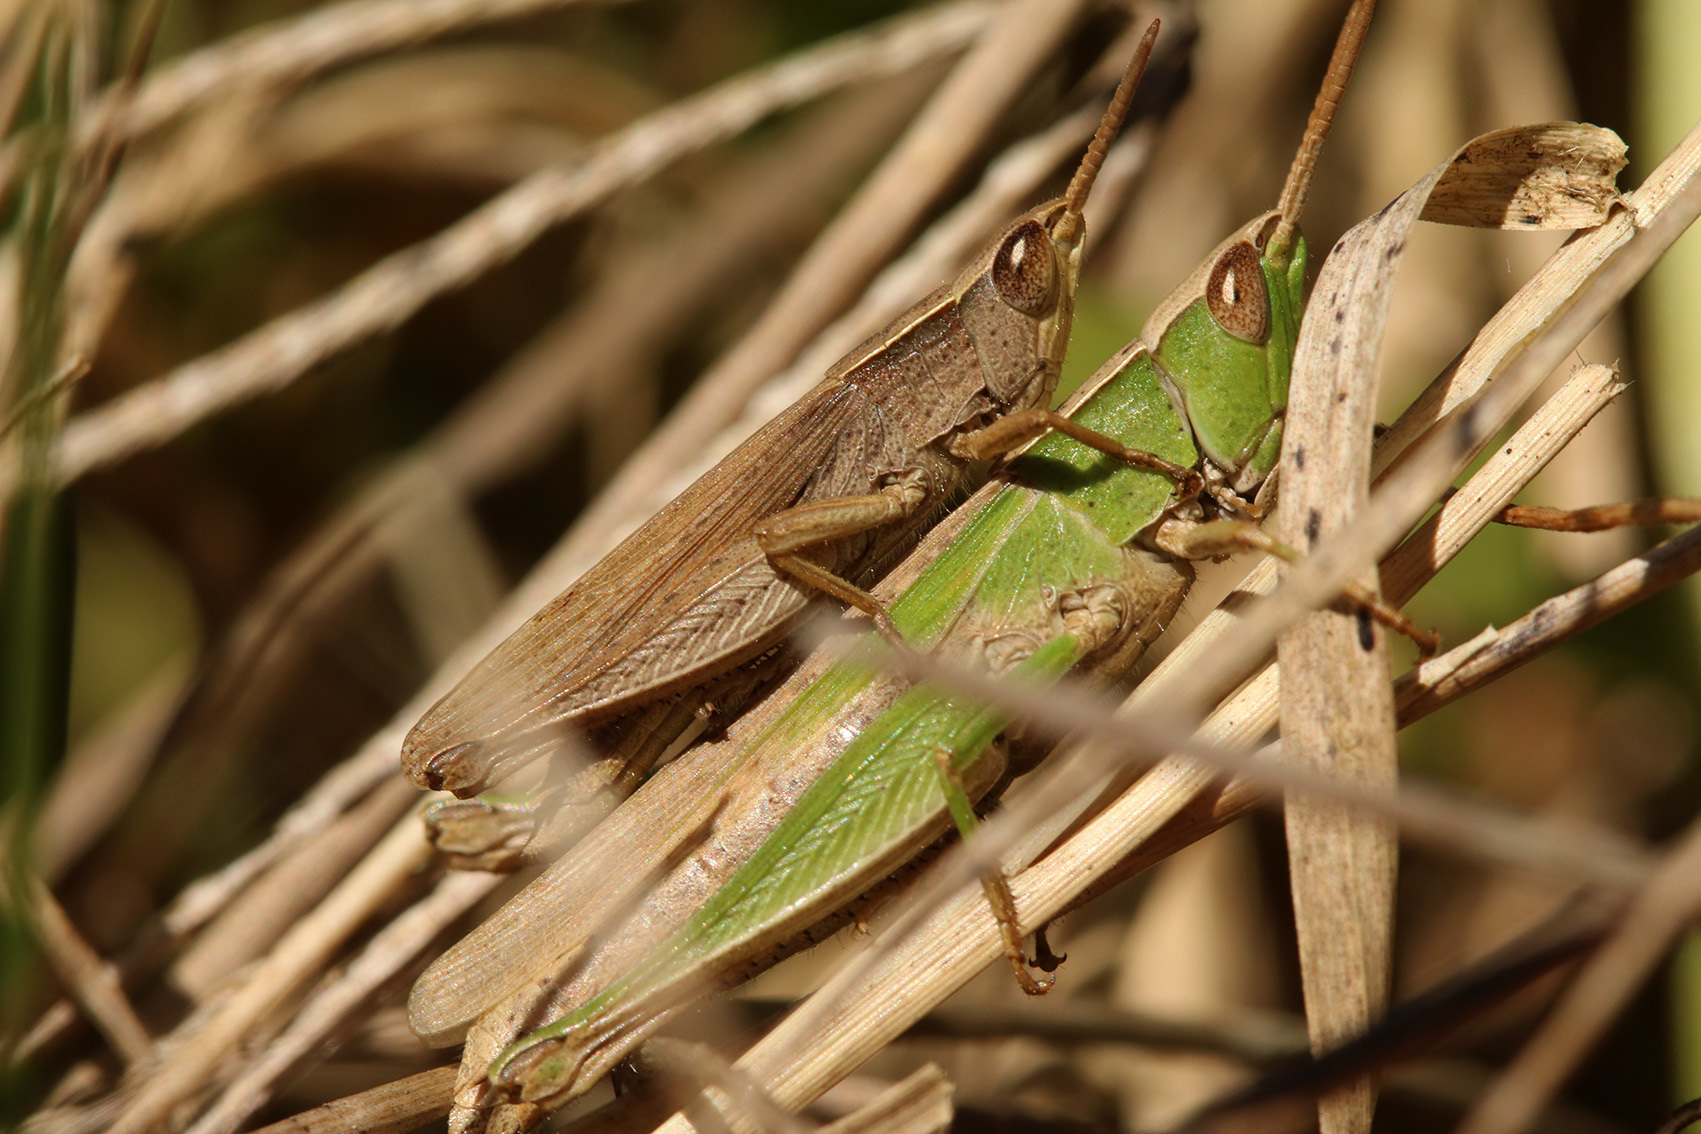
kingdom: Animalia
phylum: Arthropoda
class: Insecta
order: Orthoptera
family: Acrididae
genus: Laplatacris
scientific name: Laplatacris dispar
